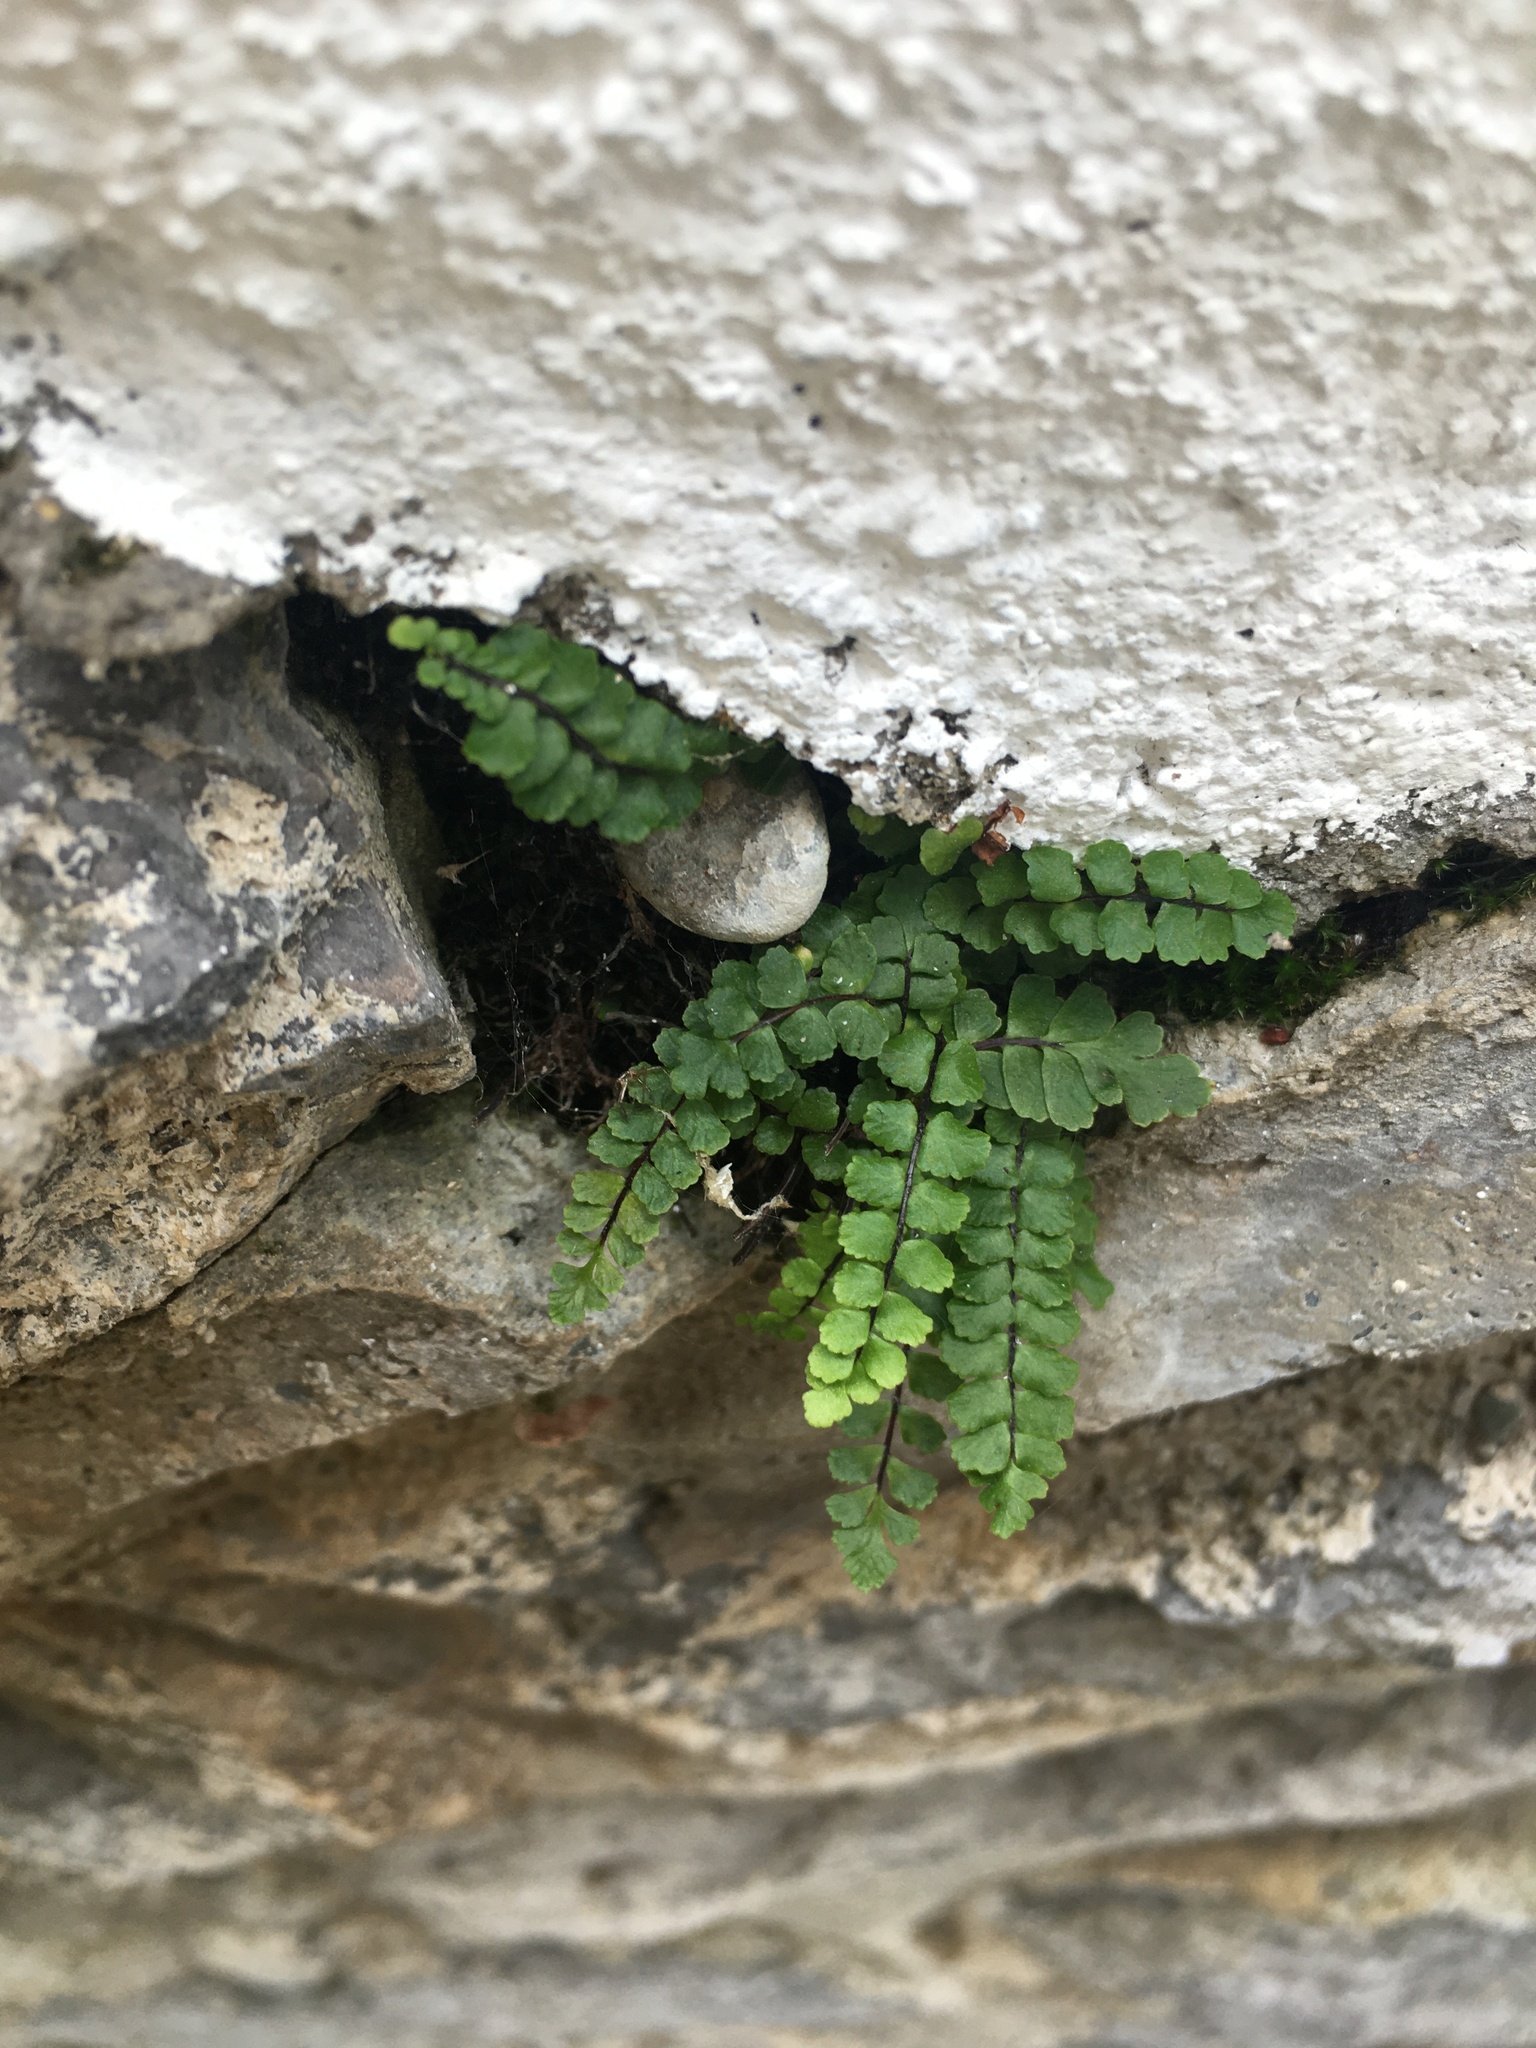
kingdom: Plantae
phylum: Tracheophyta
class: Polypodiopsida
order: Polypodiales
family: Aspleniaceae
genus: Asplenium
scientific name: Asplenium trichomanes
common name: Maidenhair spleenwort
